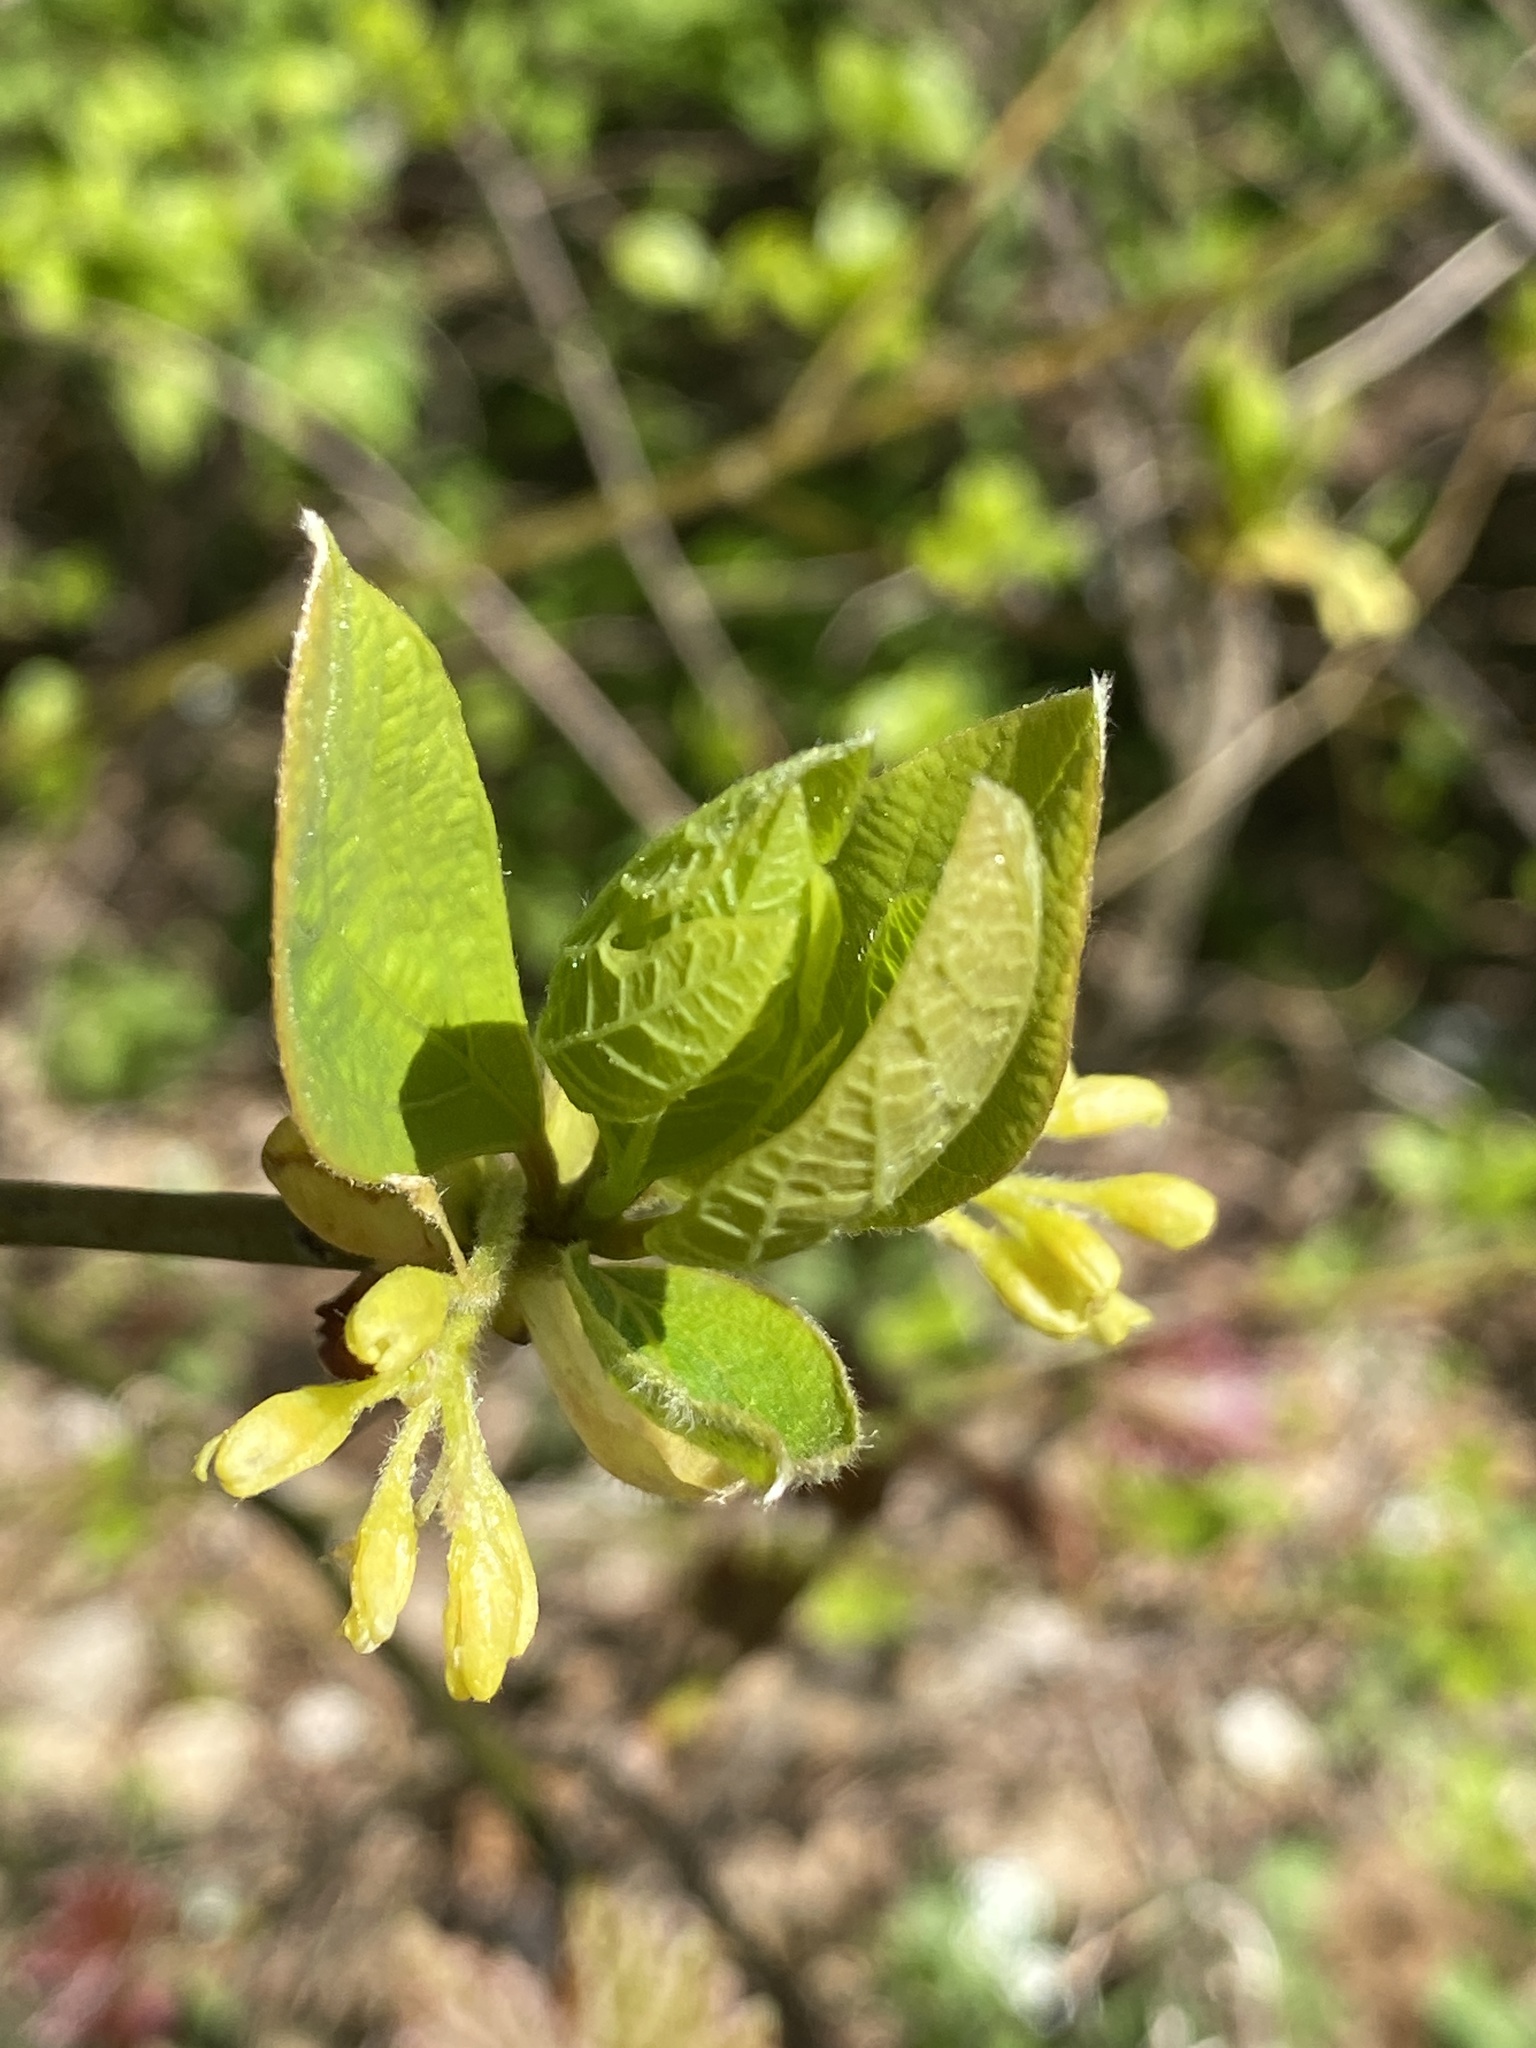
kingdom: Plantae
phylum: Tracheophyta
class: Magnoliopsida
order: Laurales
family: Lauraceae
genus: Sassafras
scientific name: Sassafras albidum
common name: Sassafras
